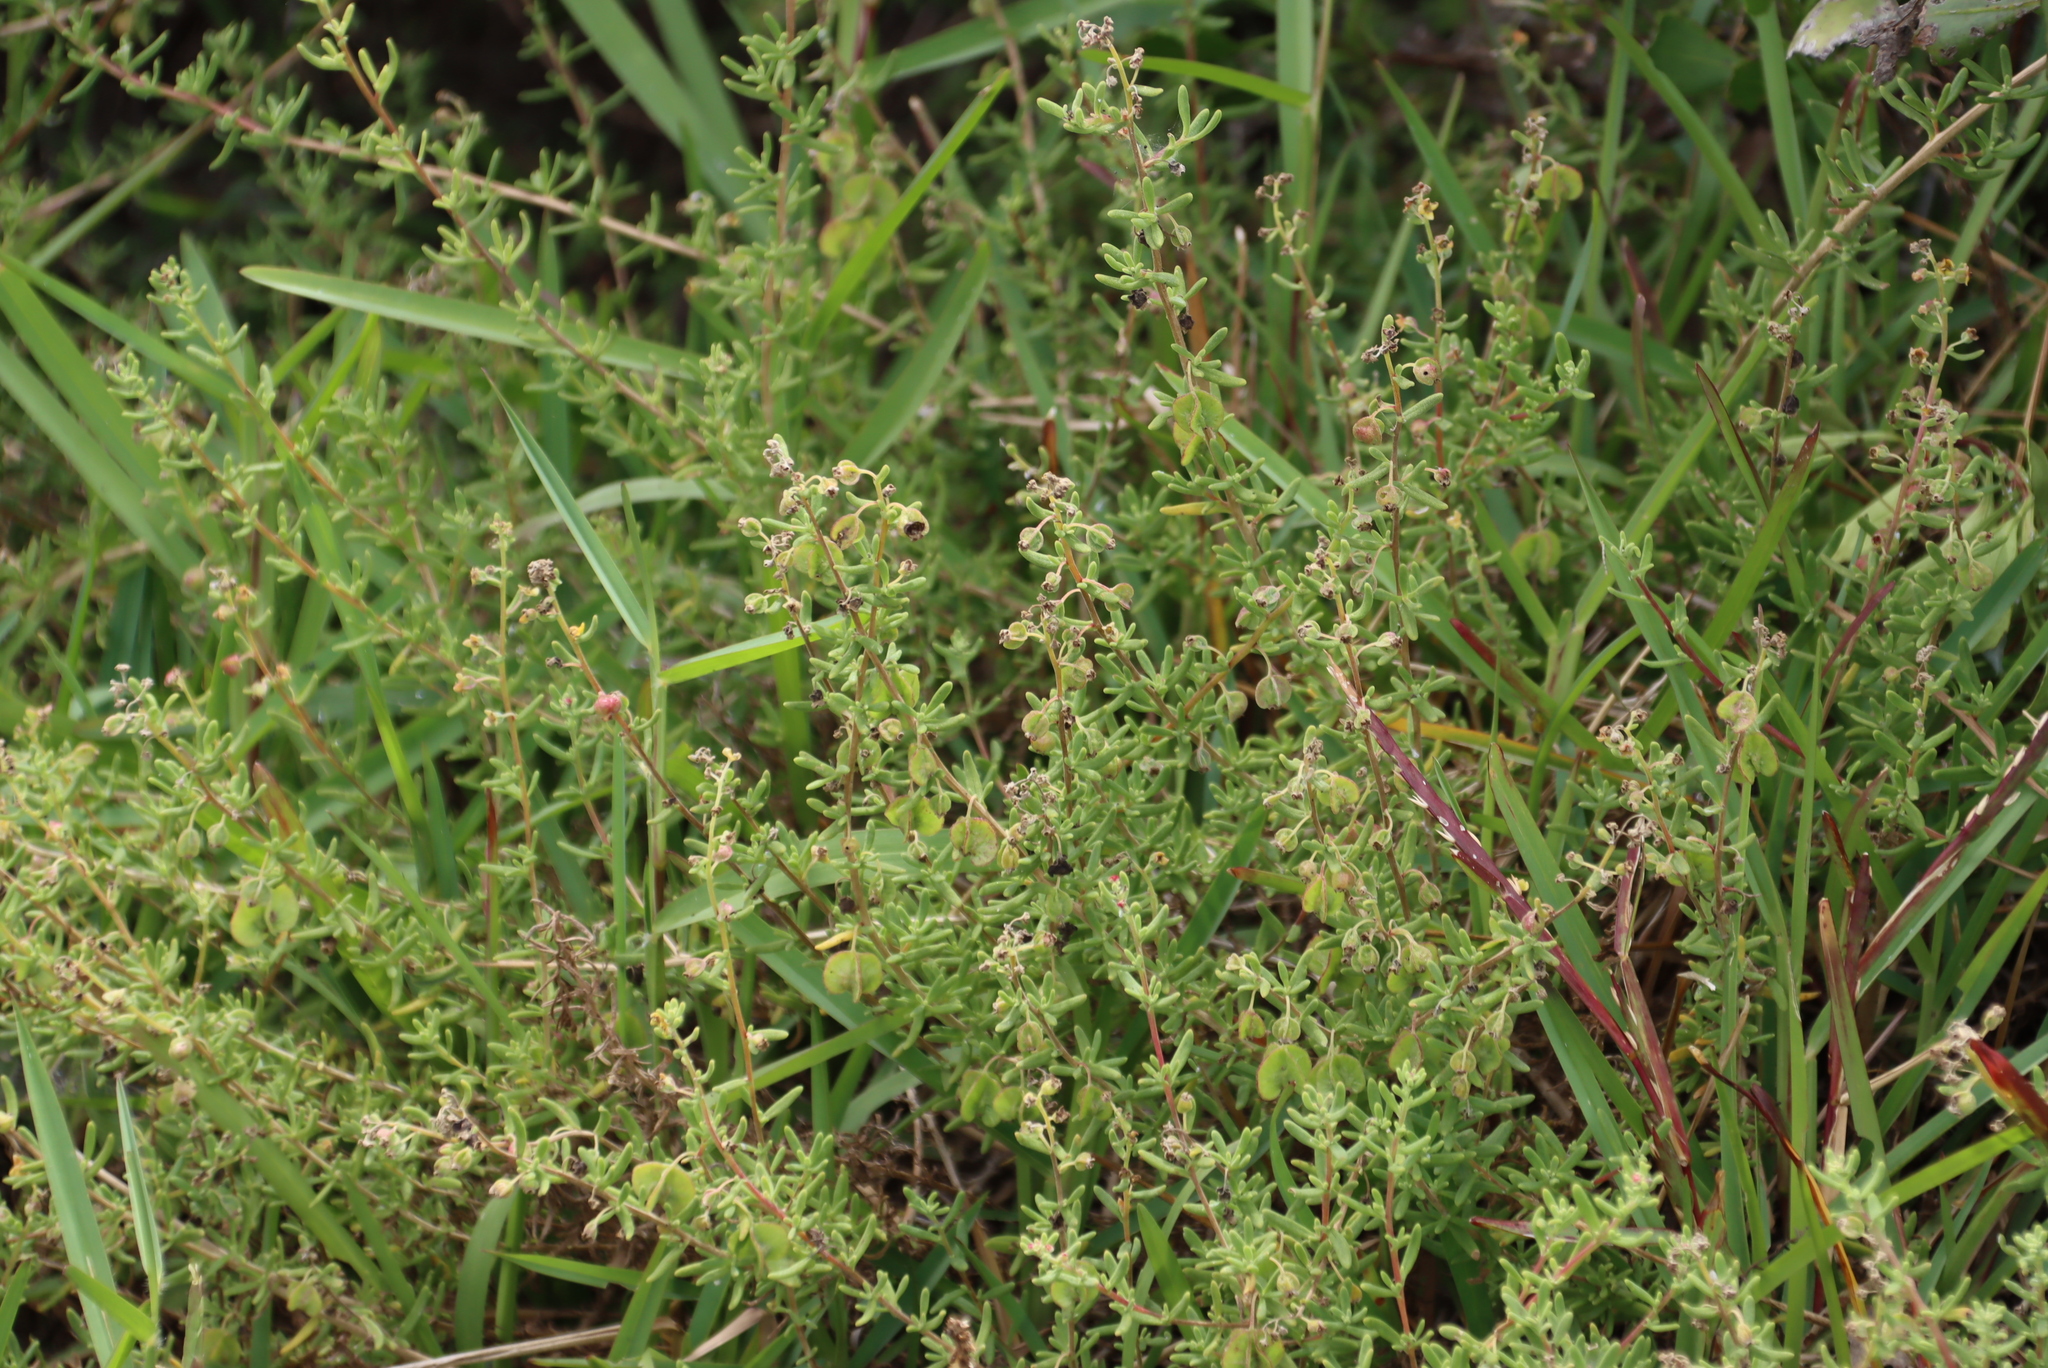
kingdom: Plantae
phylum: Tracheophyta
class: Magnoliopsida
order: Caryophyllales
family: Aizoaceae
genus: Tetragonia
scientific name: Tetragonia fruticosa
